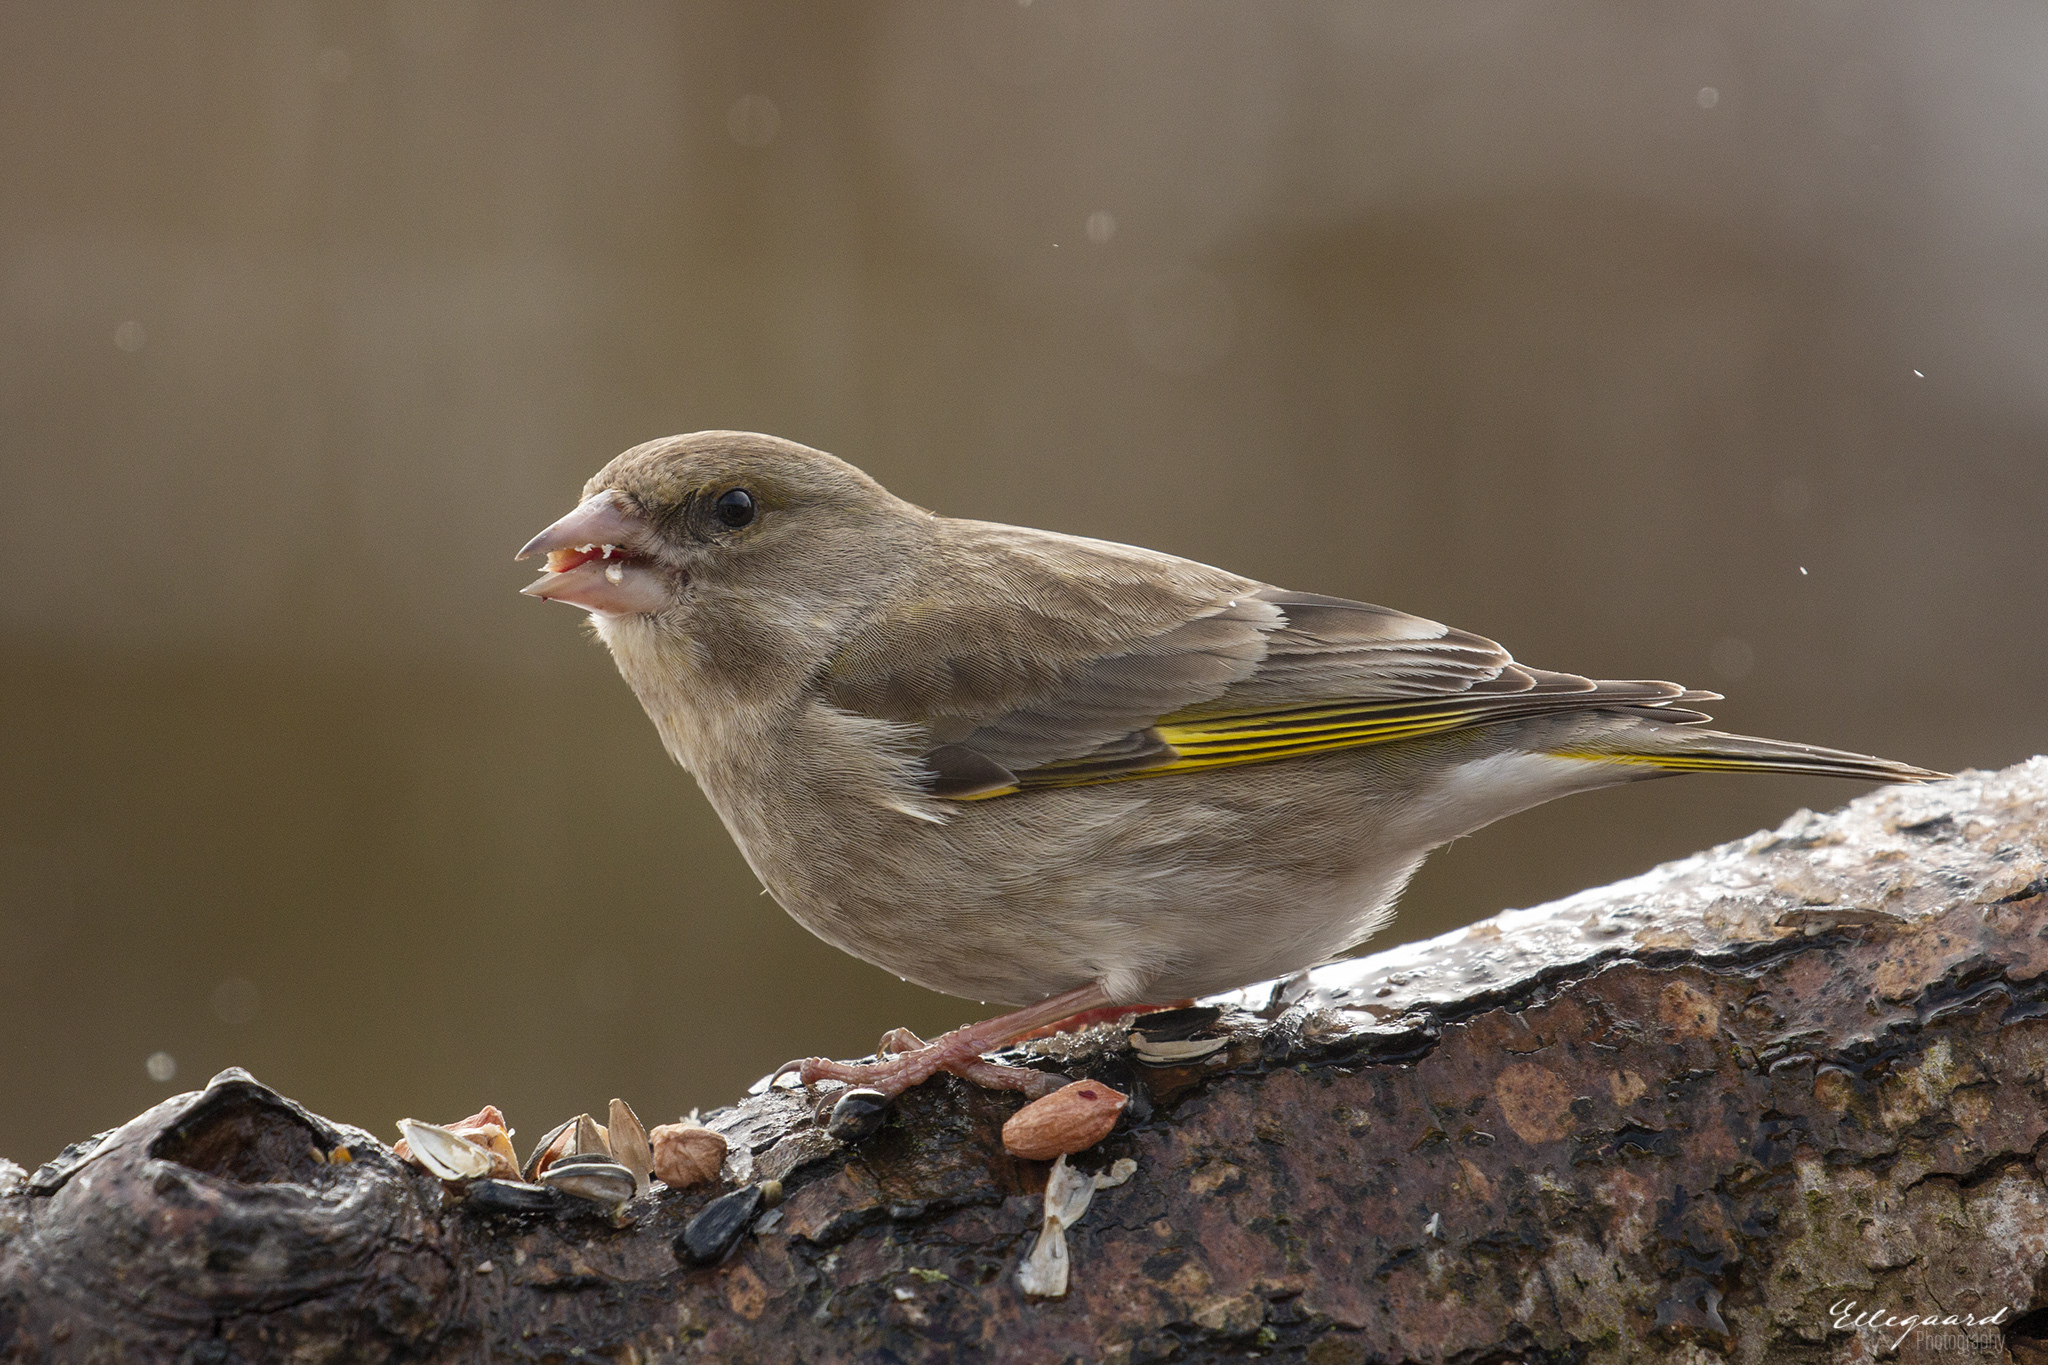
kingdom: Plantae
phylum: Tracheophyta
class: Liliopsida
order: Poales
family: Poaceae
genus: Chloris
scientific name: Chloris chloris
